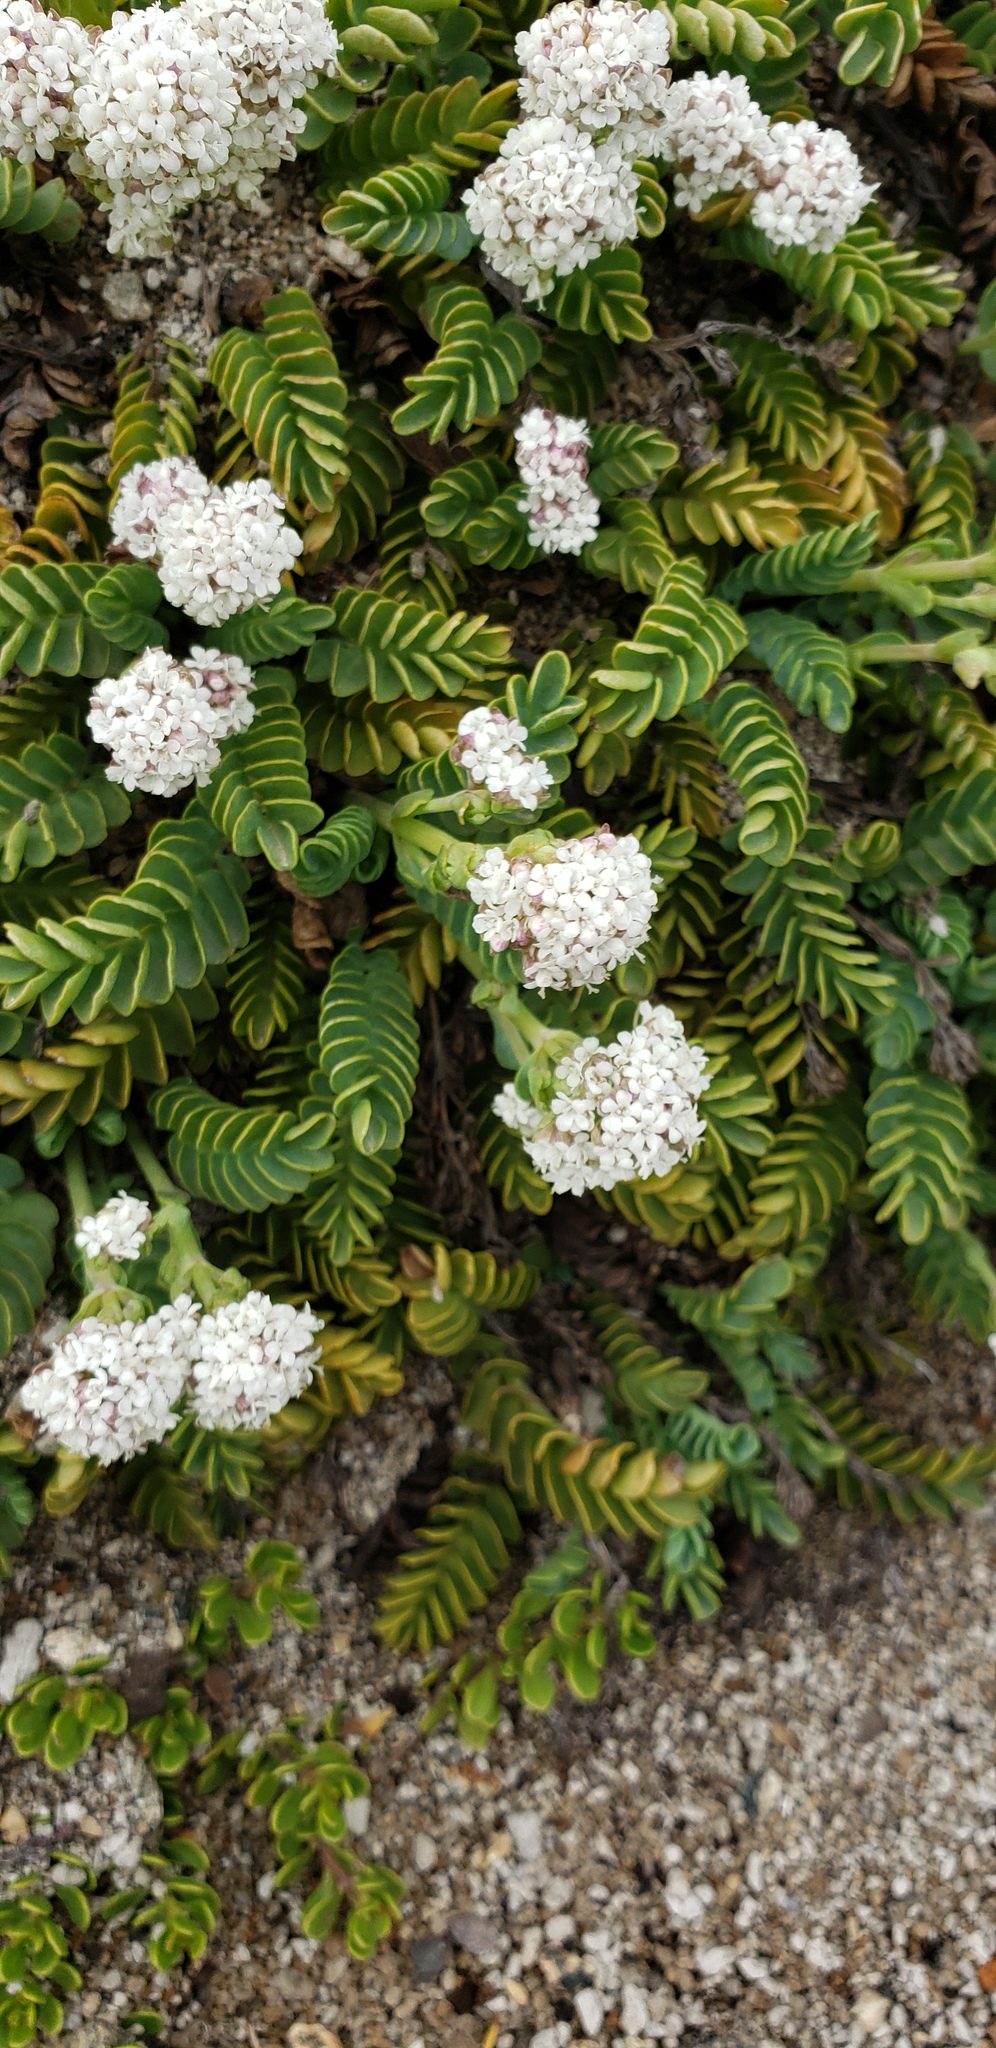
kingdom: Plantae
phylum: Tracheophyta
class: Magnoliopsida
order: Dipsacales
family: Caprifoliaceae
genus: Valeriana
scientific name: Valeriana philippiana
